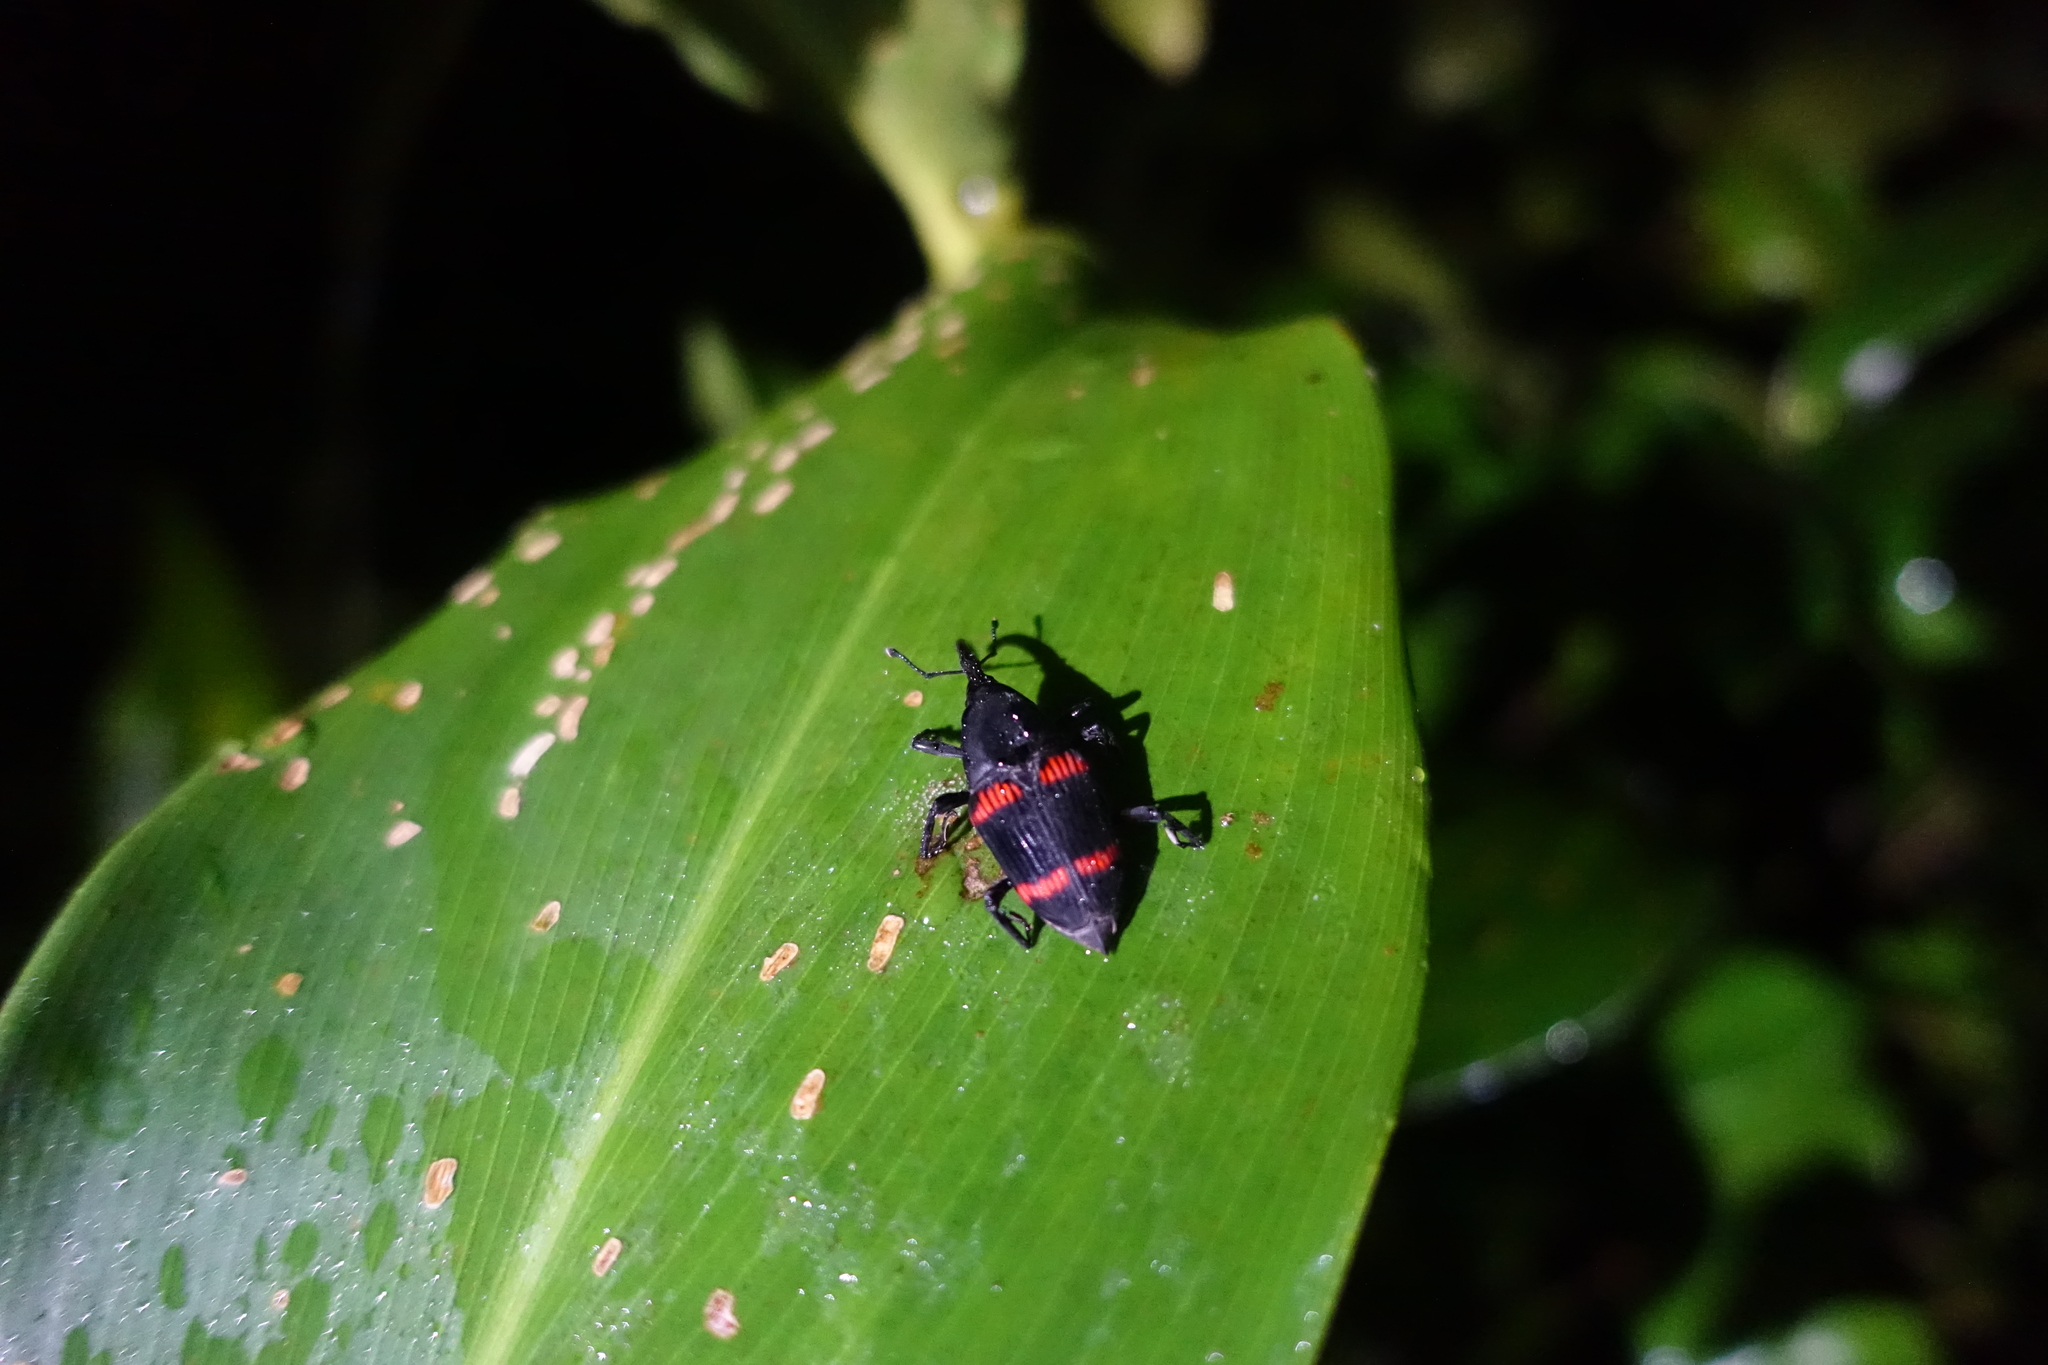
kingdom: Animalia
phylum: Arthropoda
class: Insecta
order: Coleoptera
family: Dryophthoridae
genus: Cactophagus
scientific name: Cactophagus duplocinctus
